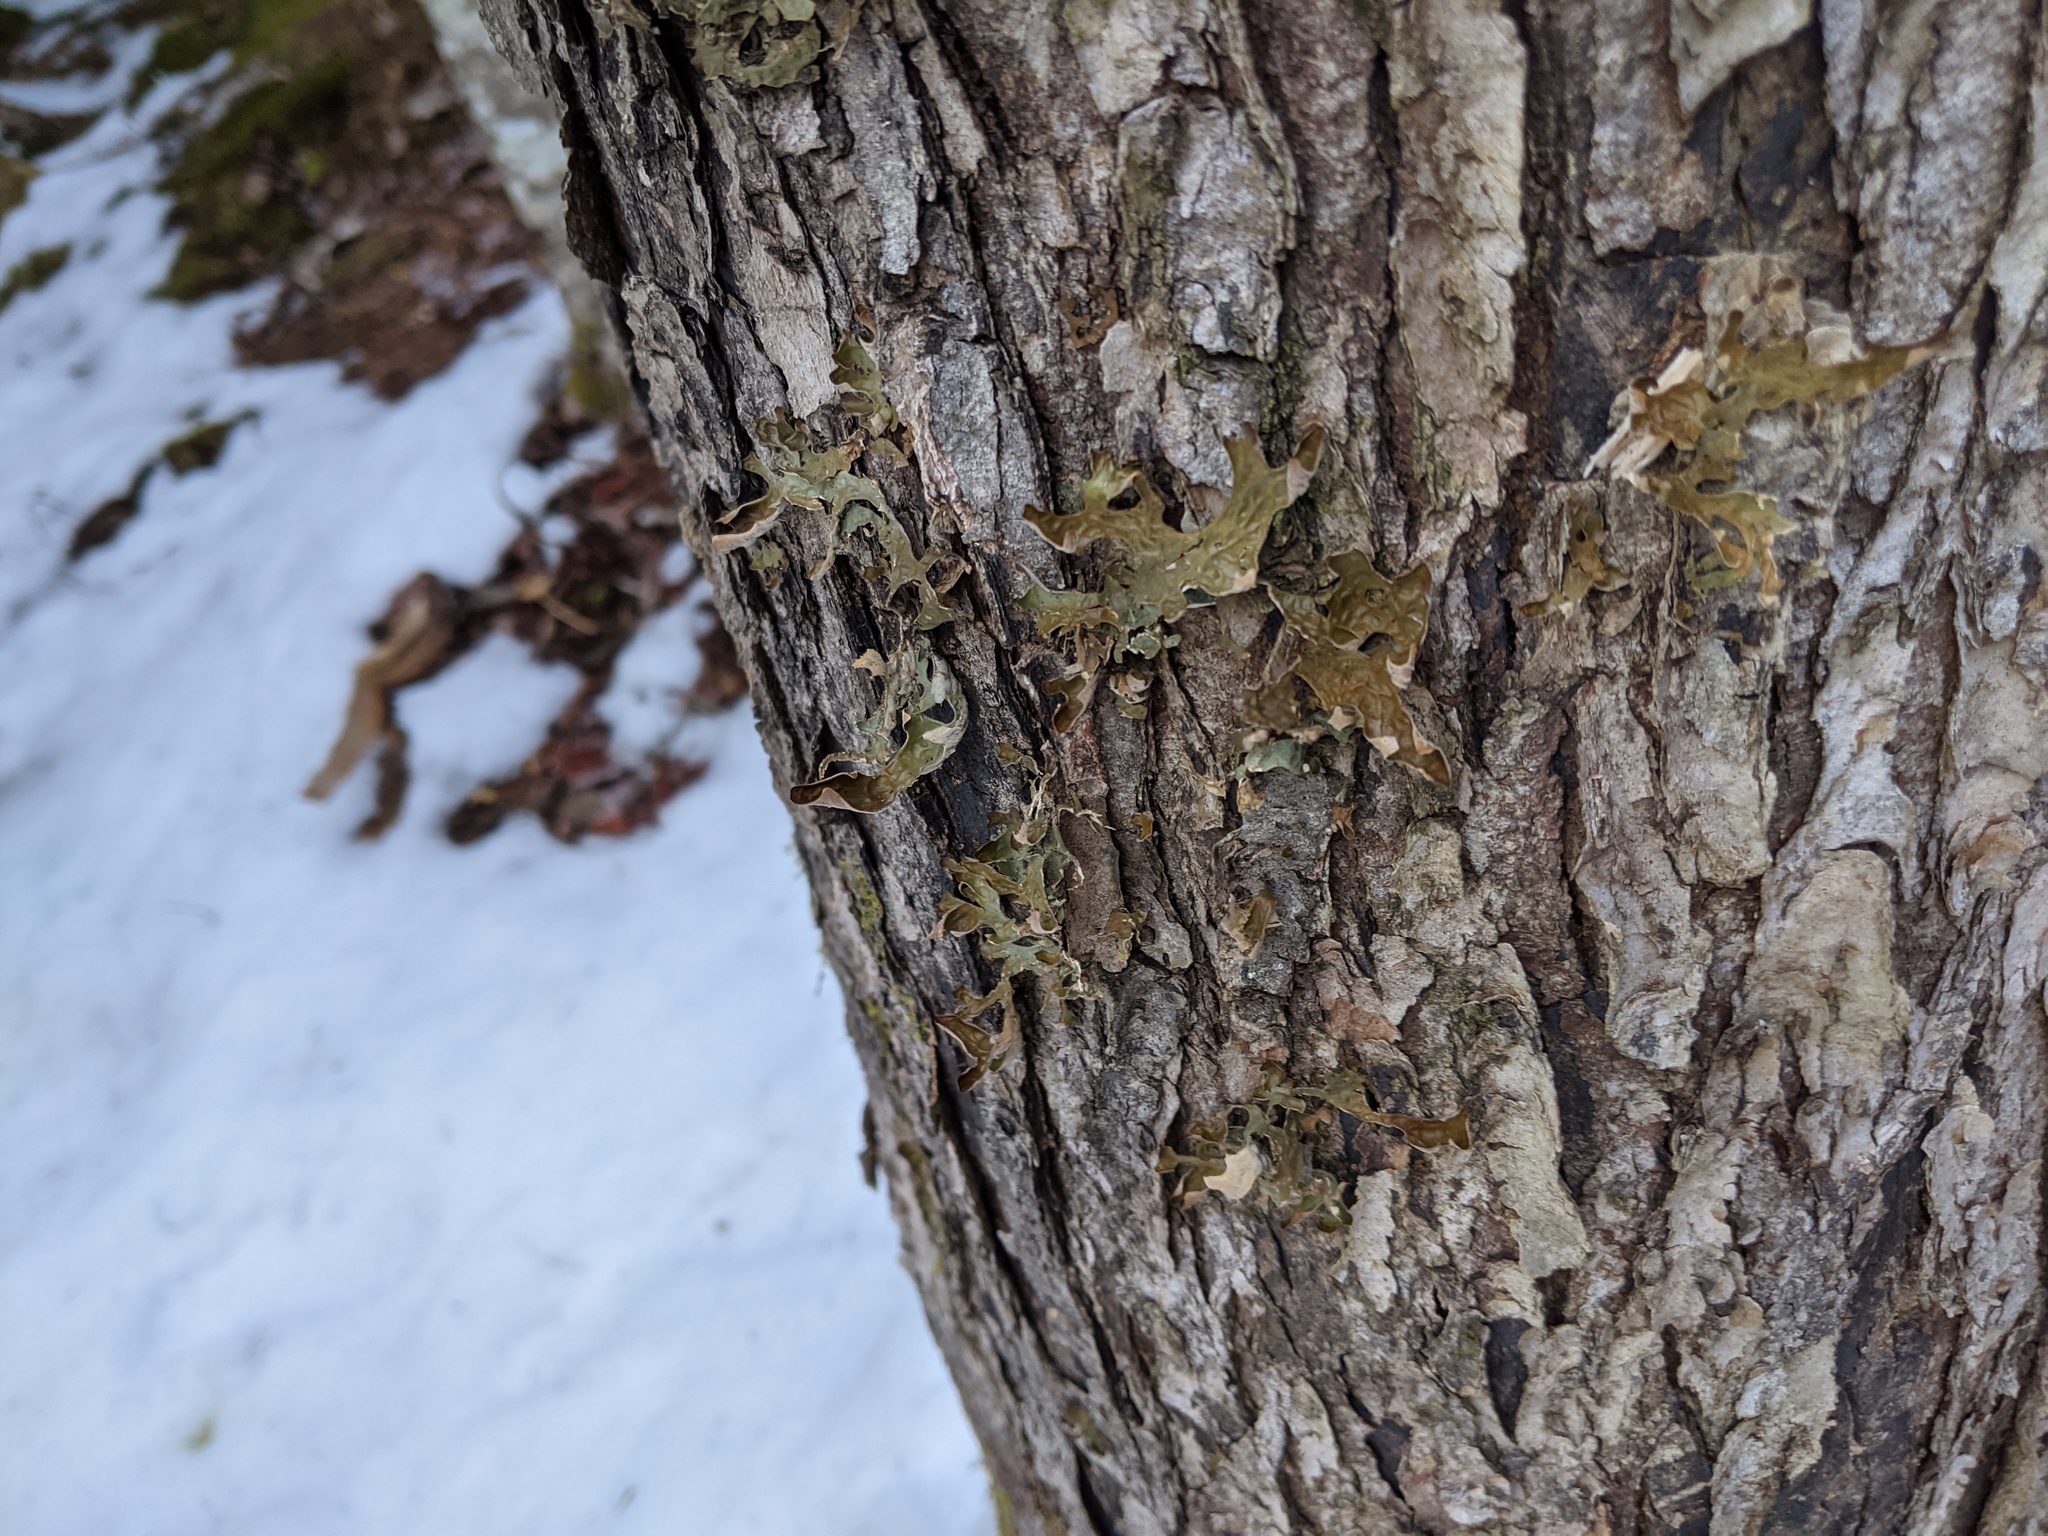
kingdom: Fungi
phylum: Ascomycota
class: Lecanoromycetes
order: Peltigerales
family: Lobariaceae
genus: Lobaria
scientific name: Lobaria pulmonaria
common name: Lungwort
